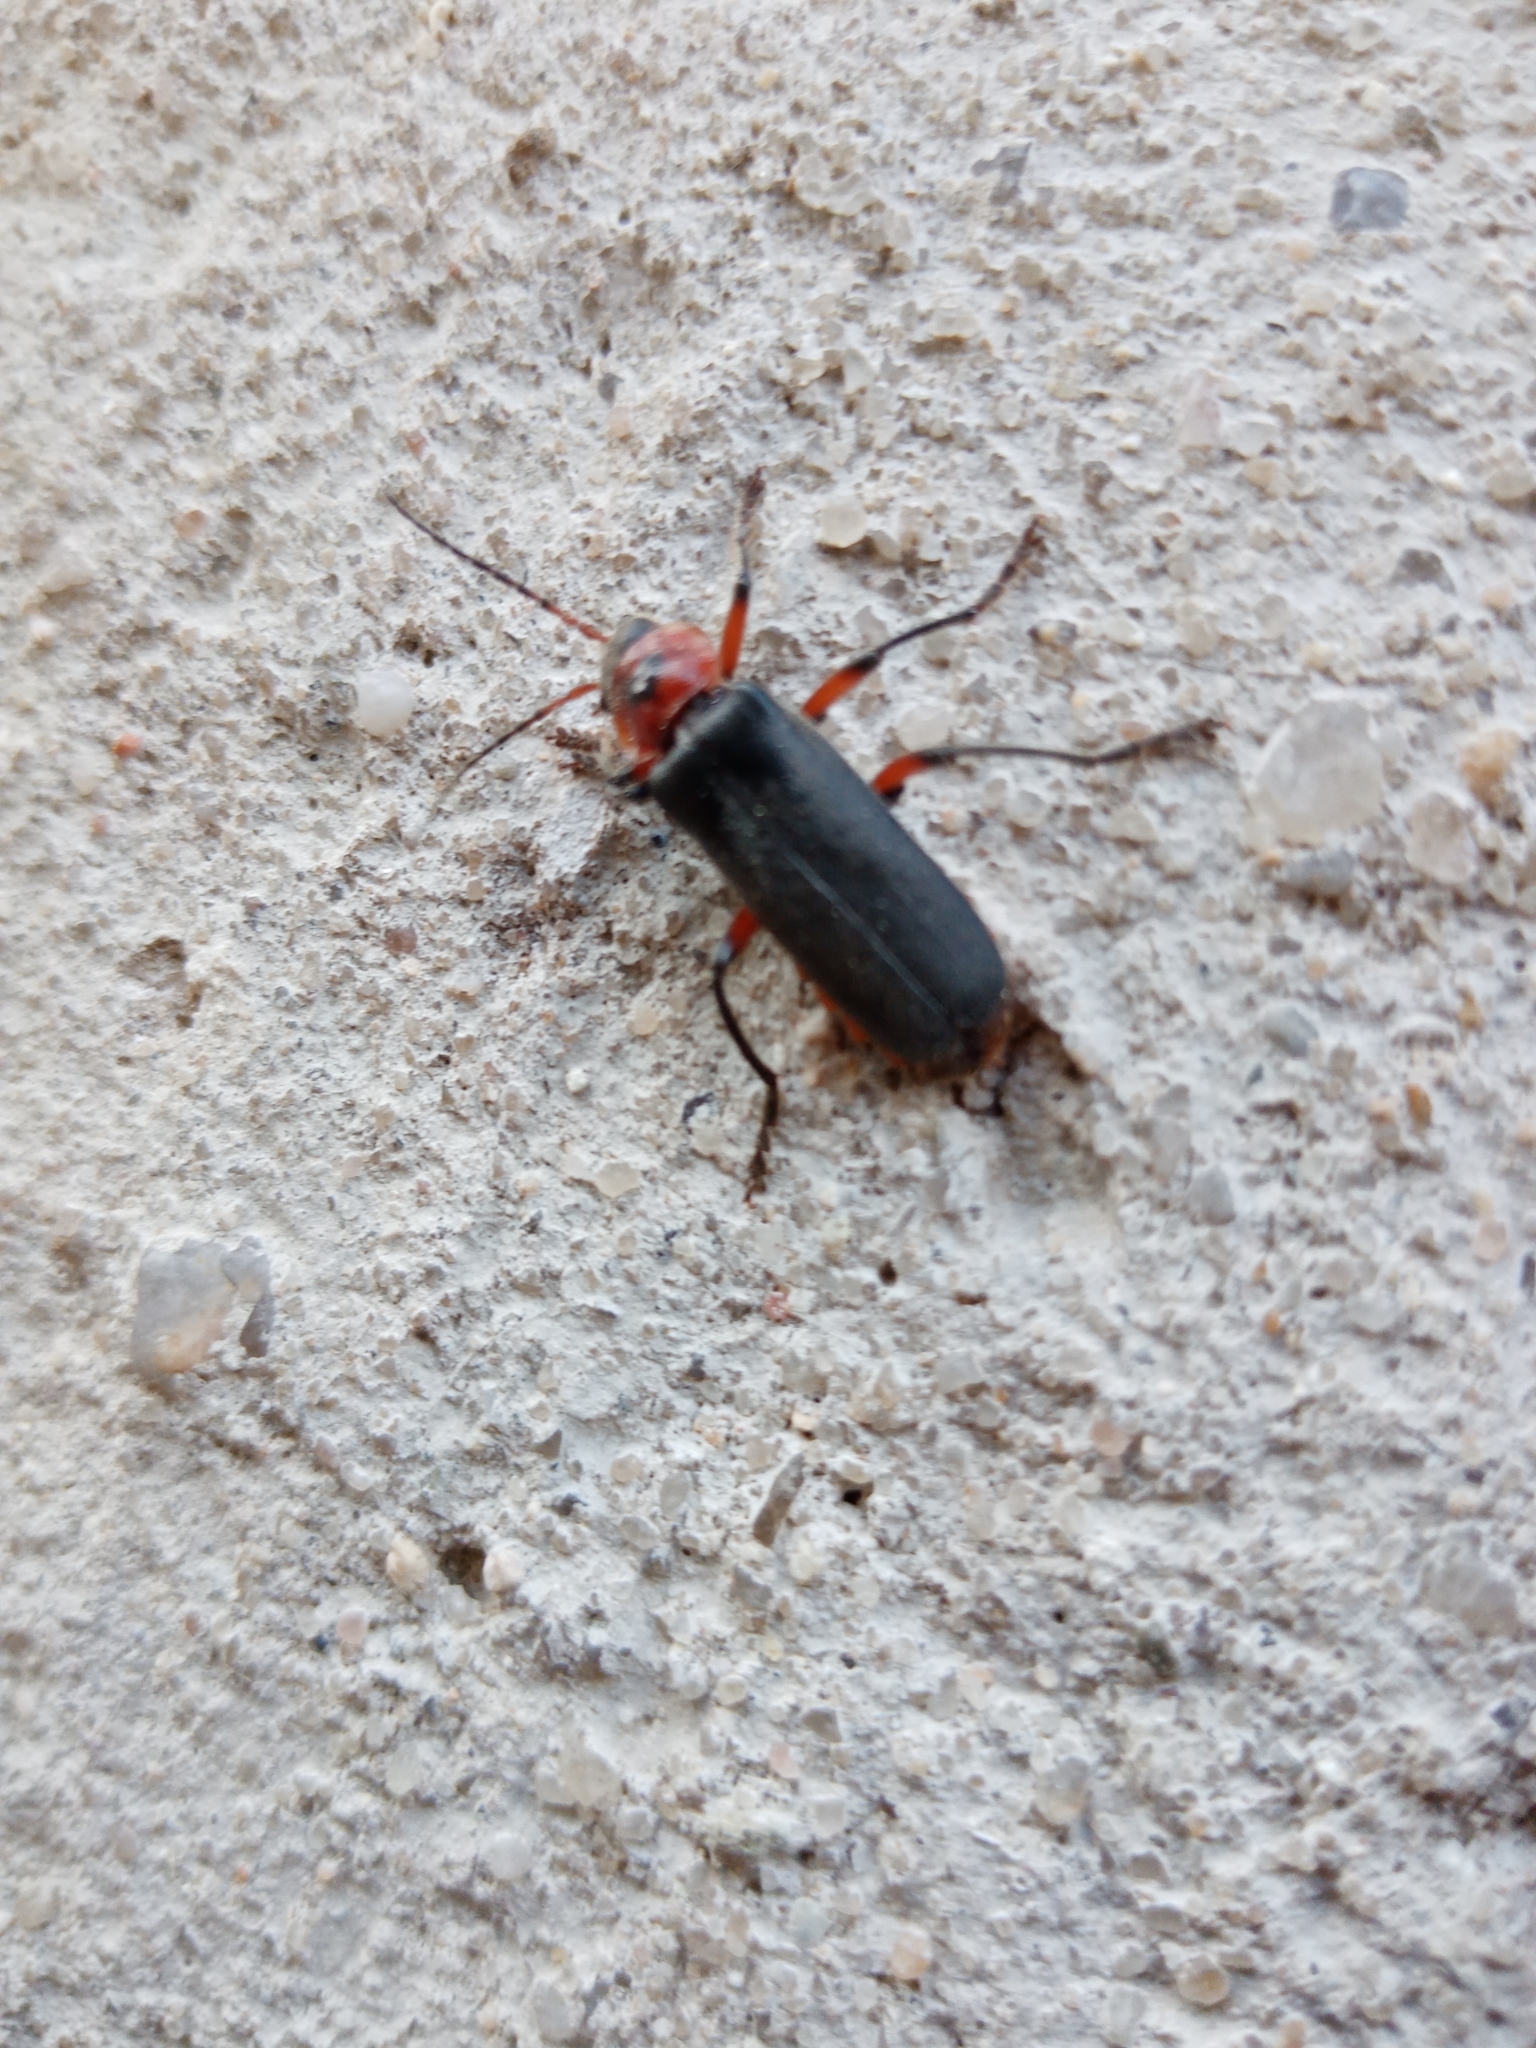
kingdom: Animalia
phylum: Arthropoda
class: Insecta
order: Coleoptera
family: Cantharidae
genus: Cantharis
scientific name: Cantharis rustica
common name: Soldier beetle
